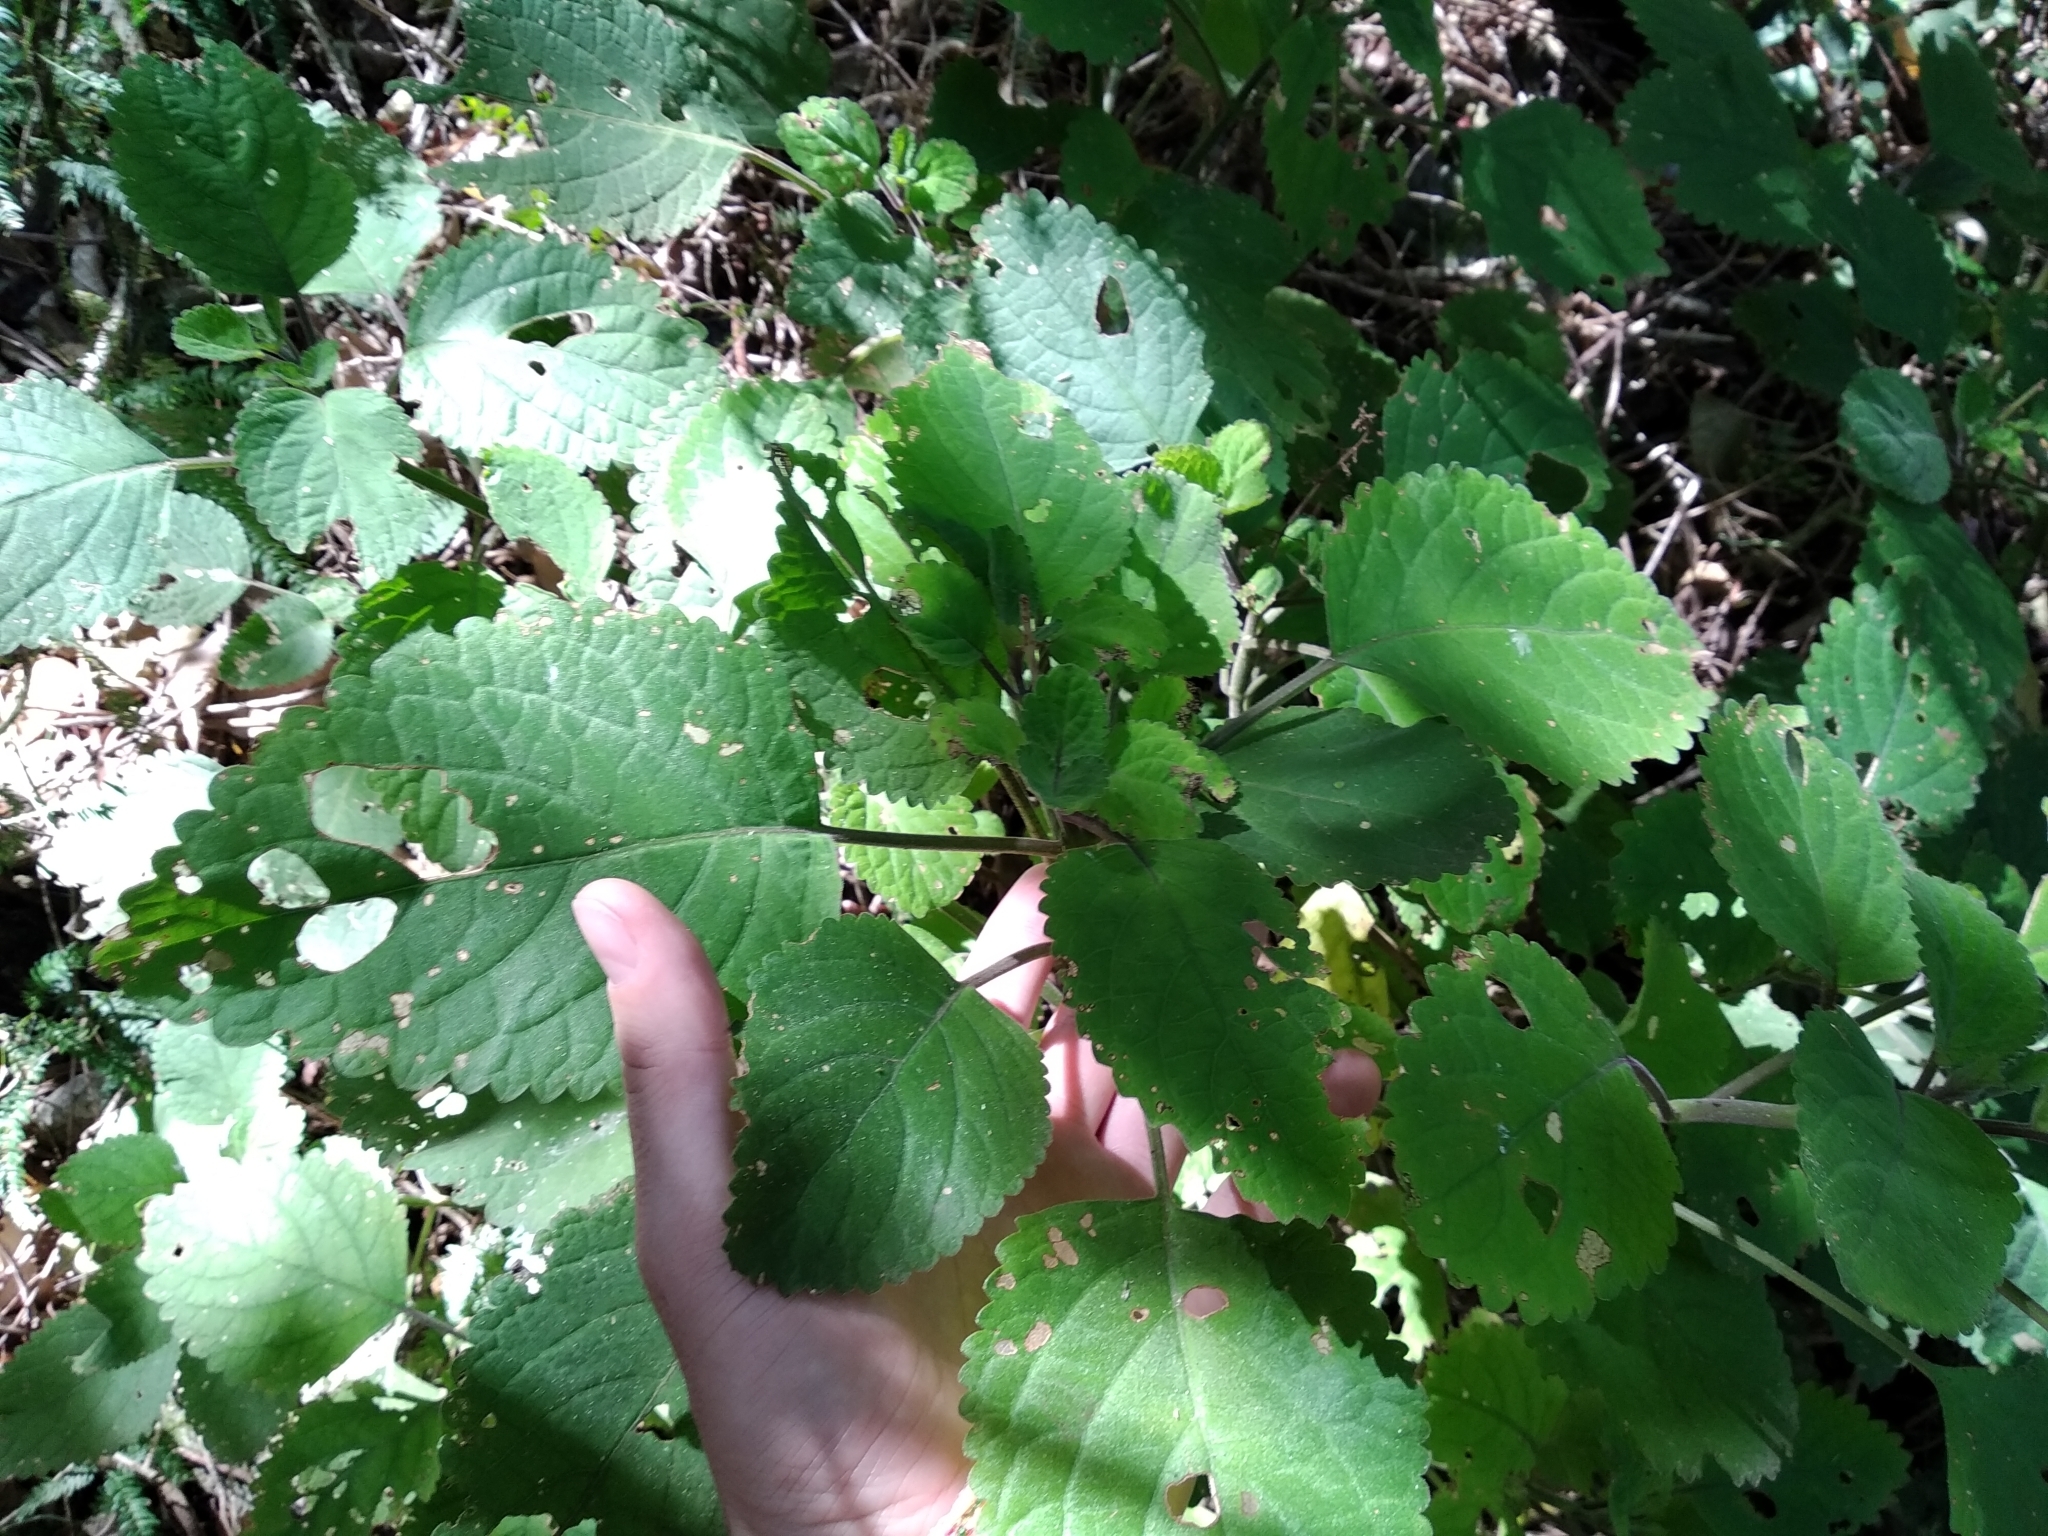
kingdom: Plantae
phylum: Tracheophyta
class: Magnoliopsida
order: Lamiales
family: Lamiaceae
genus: Plectranthus
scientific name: Plectranthus zuluensis
